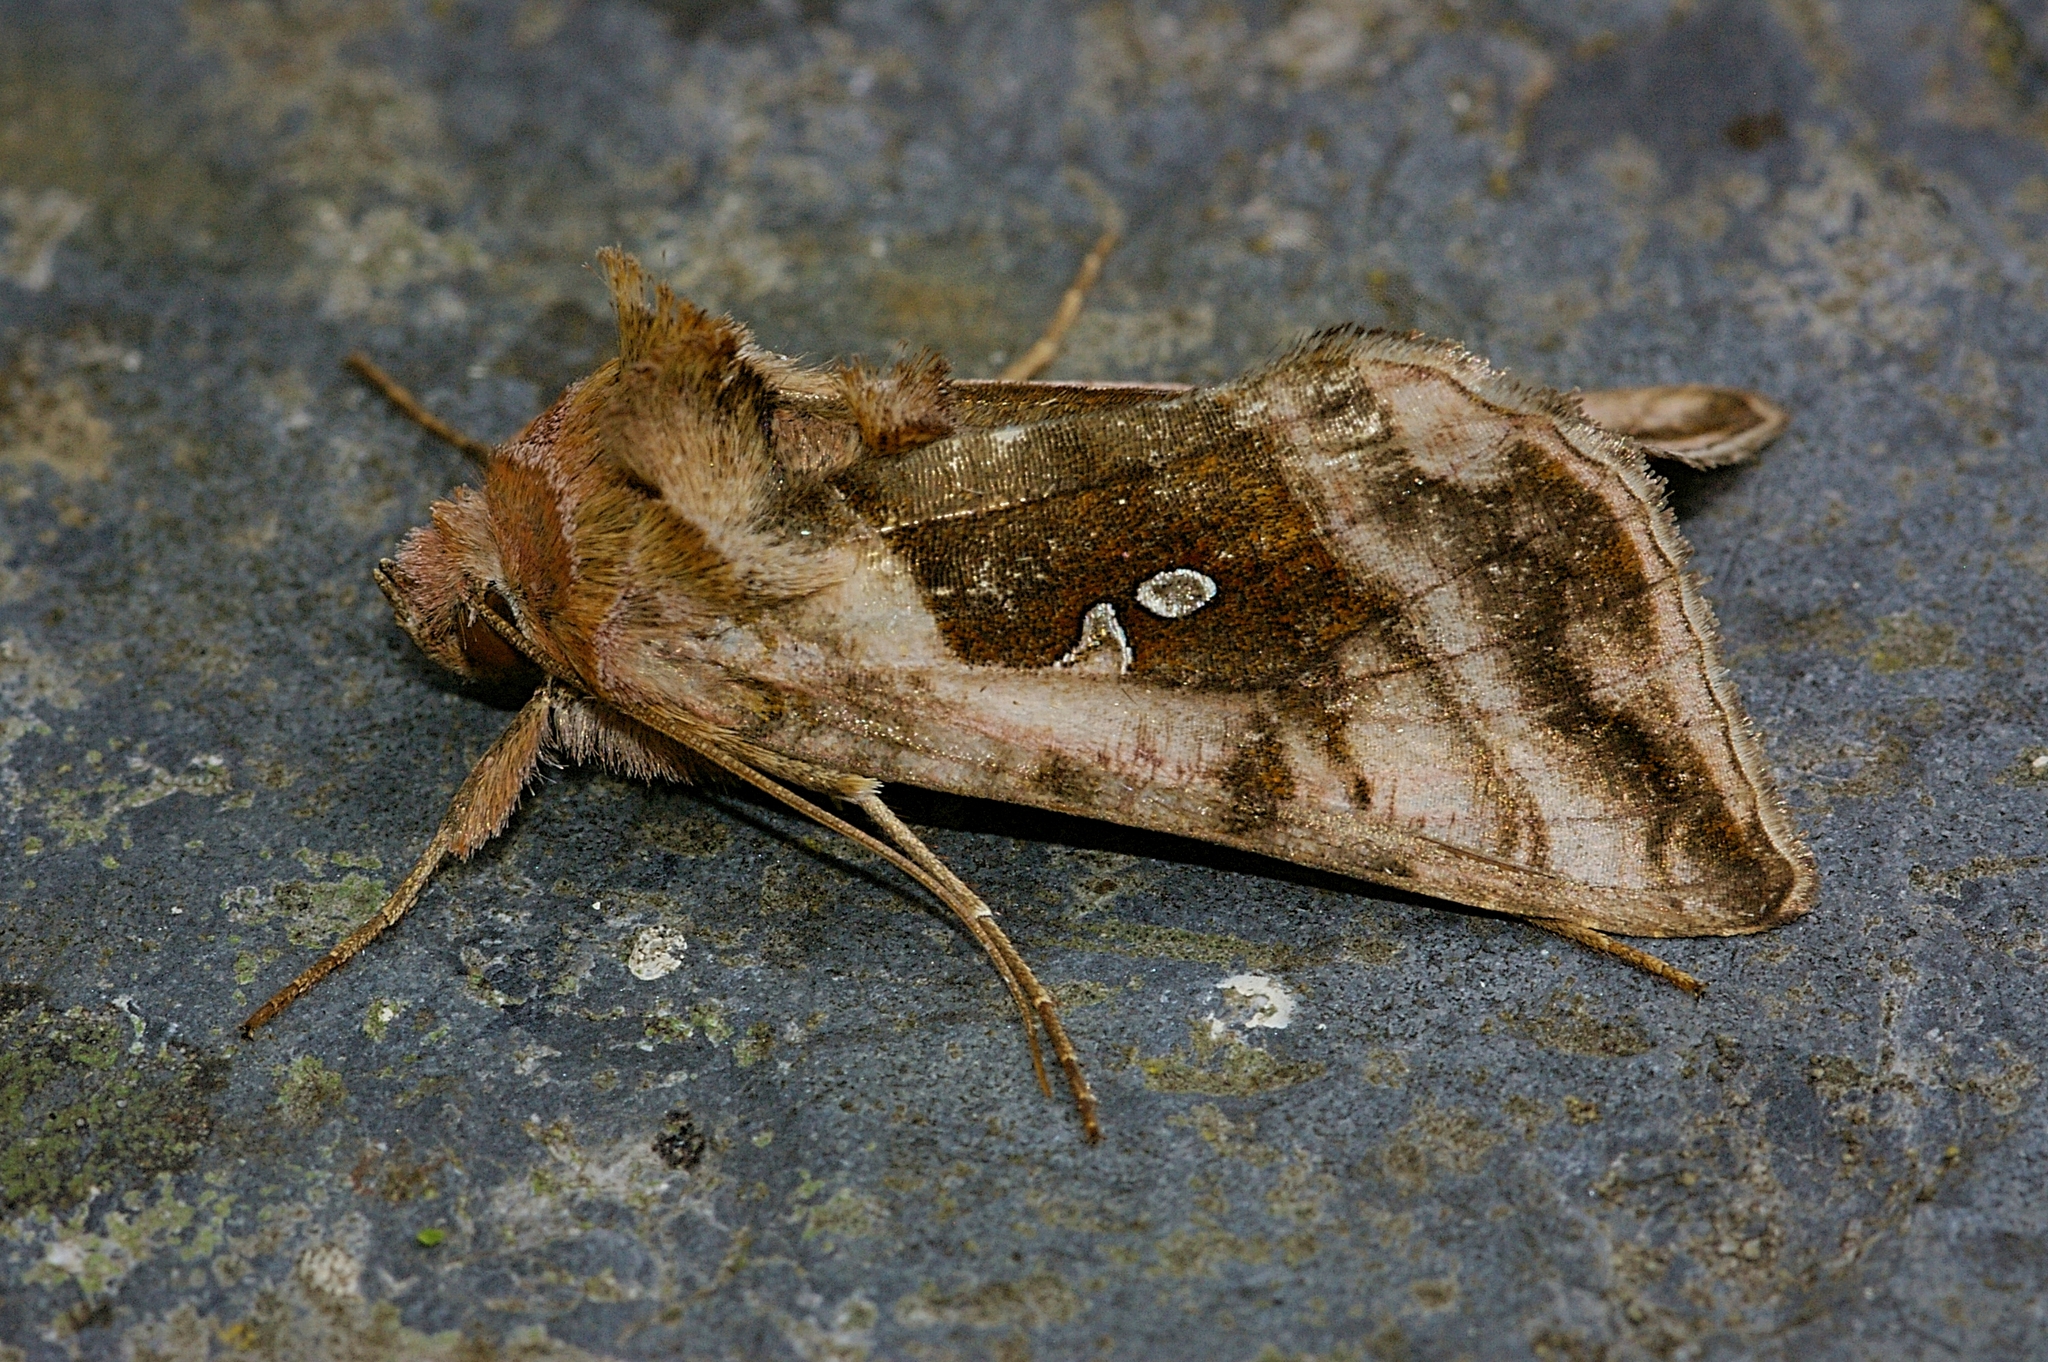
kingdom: Animalia
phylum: Arthropoda
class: Insecta
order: Lepidoptera
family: Noctuidae
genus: Autographa
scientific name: Autographa jota
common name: Plain golden y
